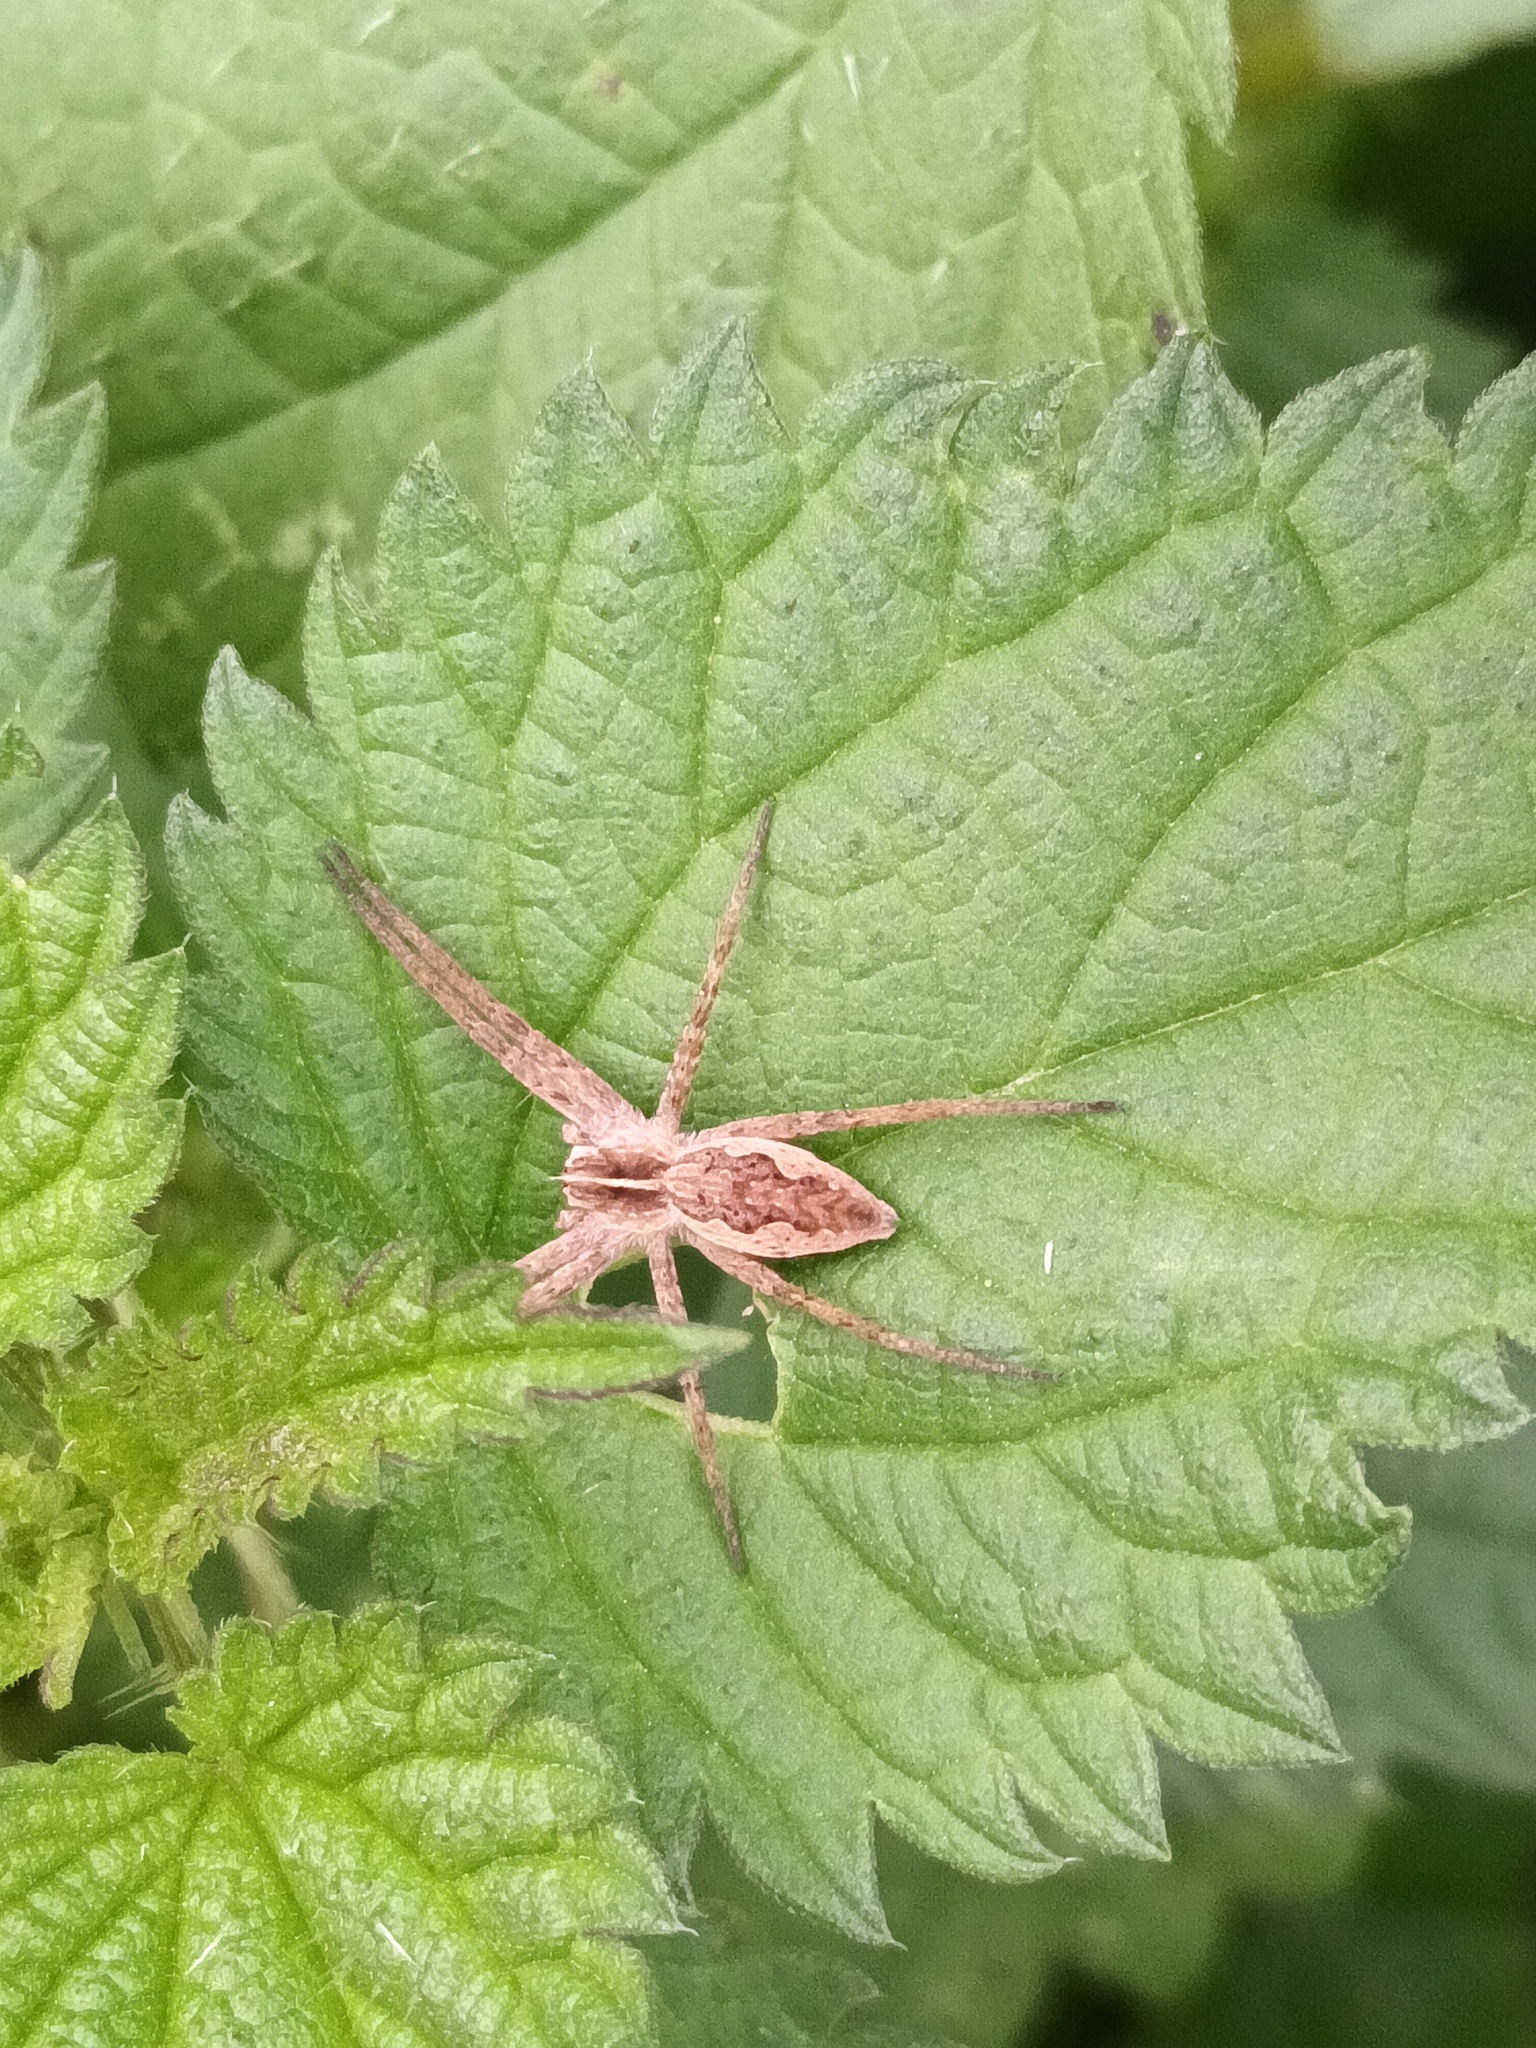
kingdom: Animalia
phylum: Arthropoda
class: Arachnida
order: Araneae
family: Pisauridae
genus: Pisaura
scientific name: Pisaura mirabilis
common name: Tent spider
